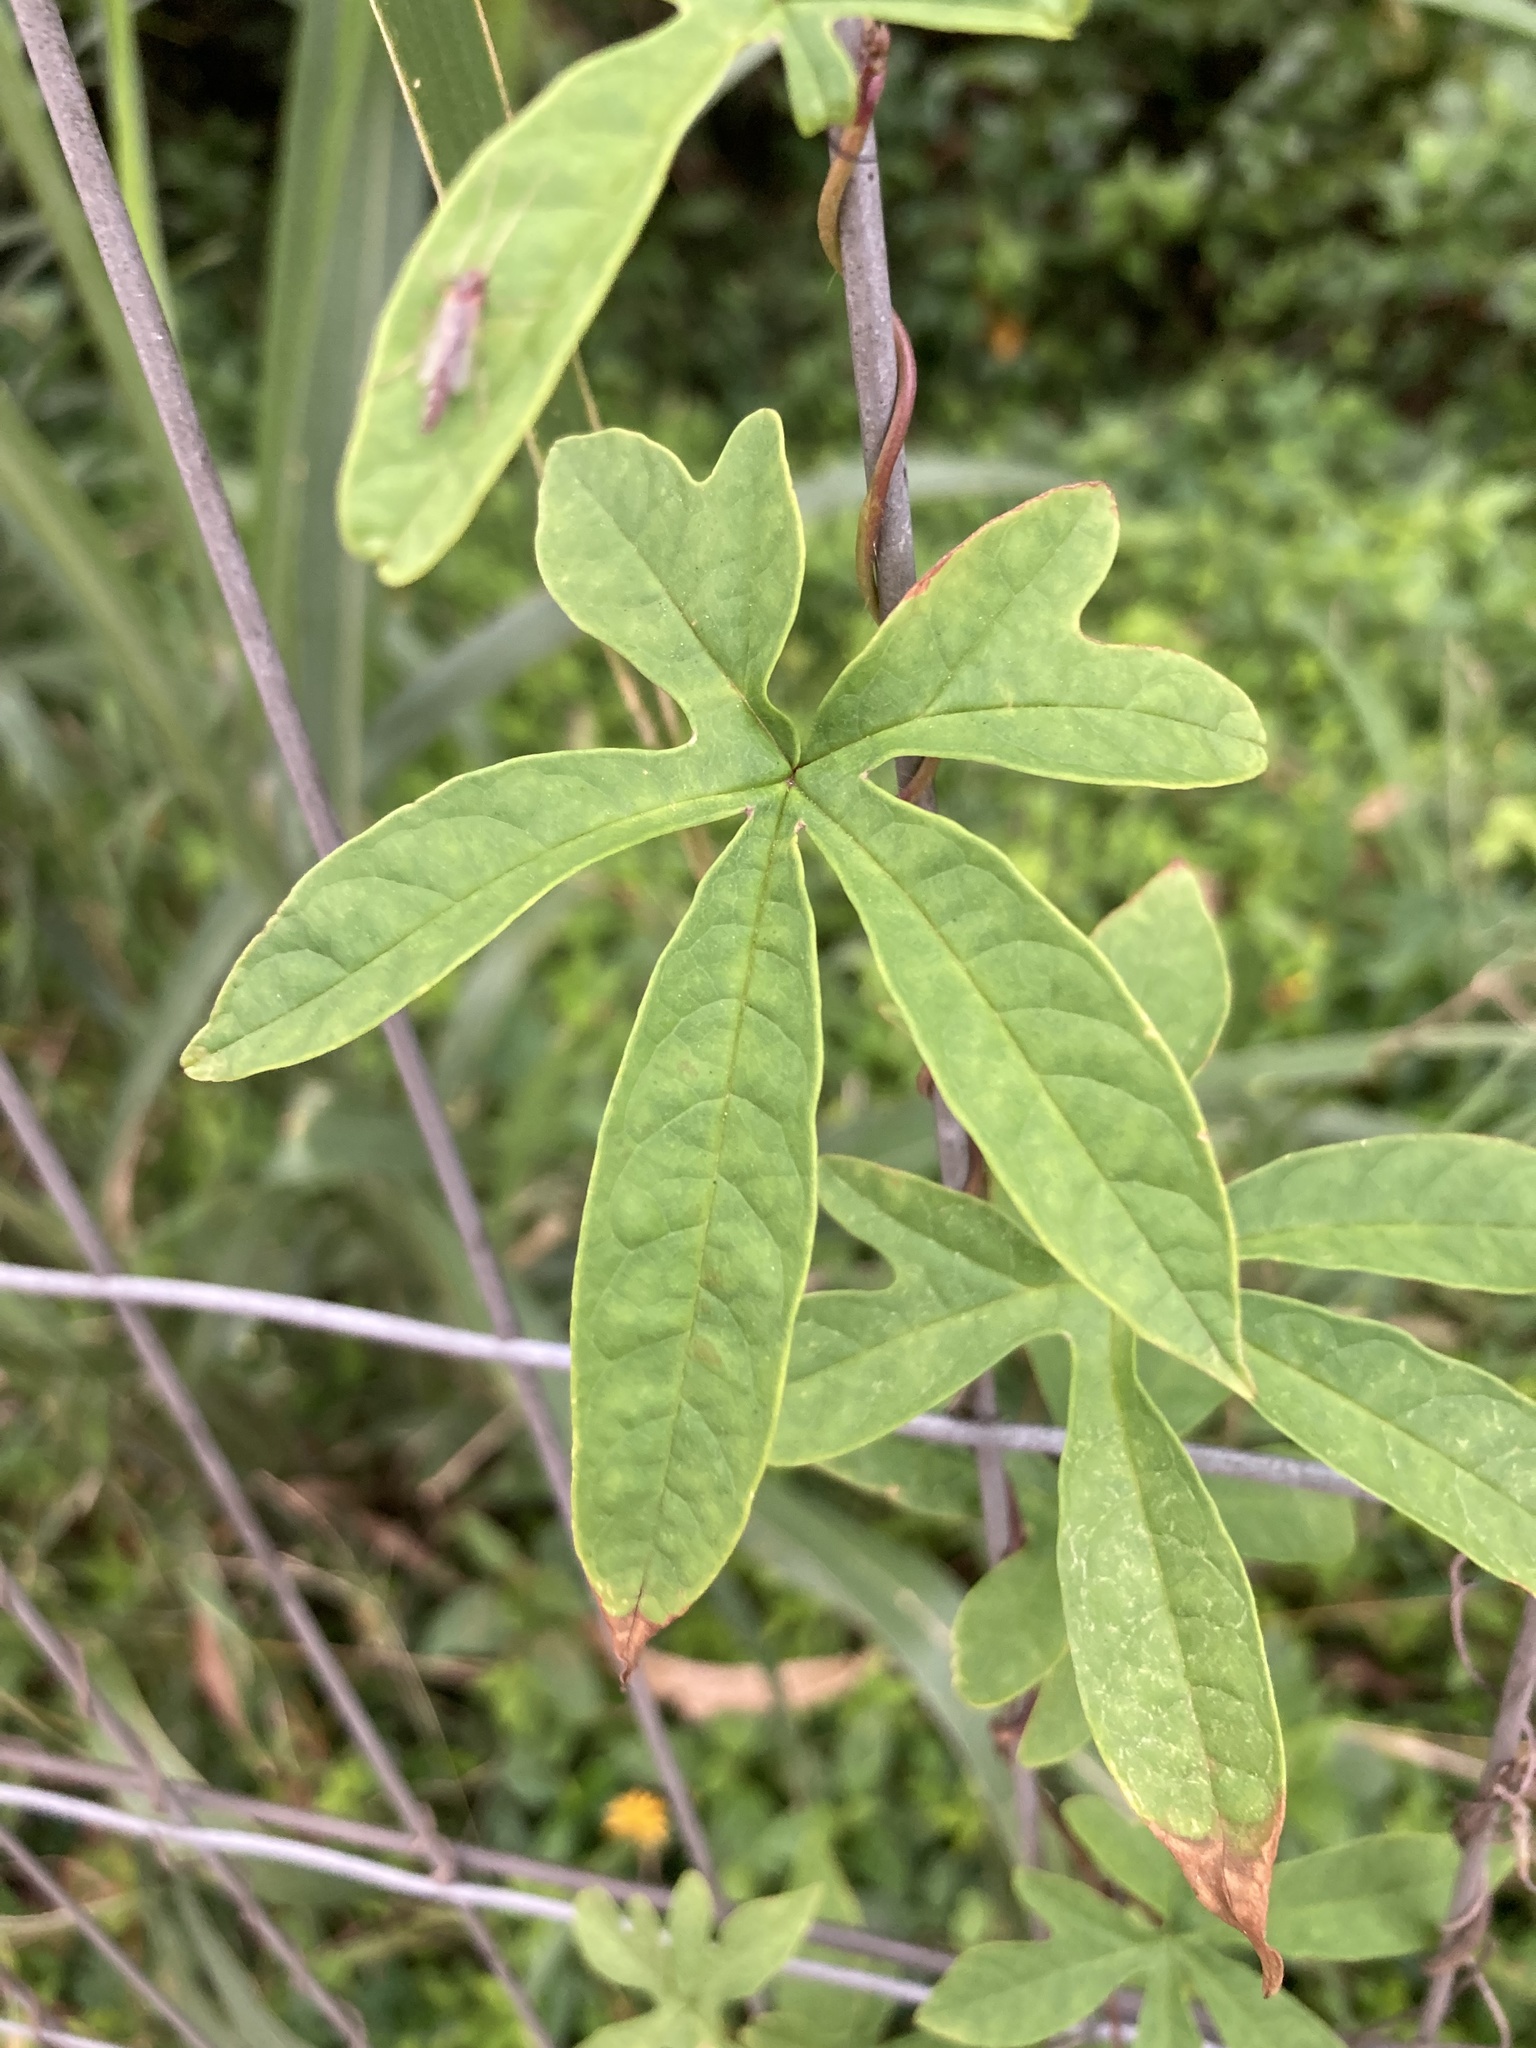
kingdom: Plantae
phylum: Tracheophyta
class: Magnoliopsida
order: Solanales
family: Convolvulaceae
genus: Distimake
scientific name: Distimake dissectus
